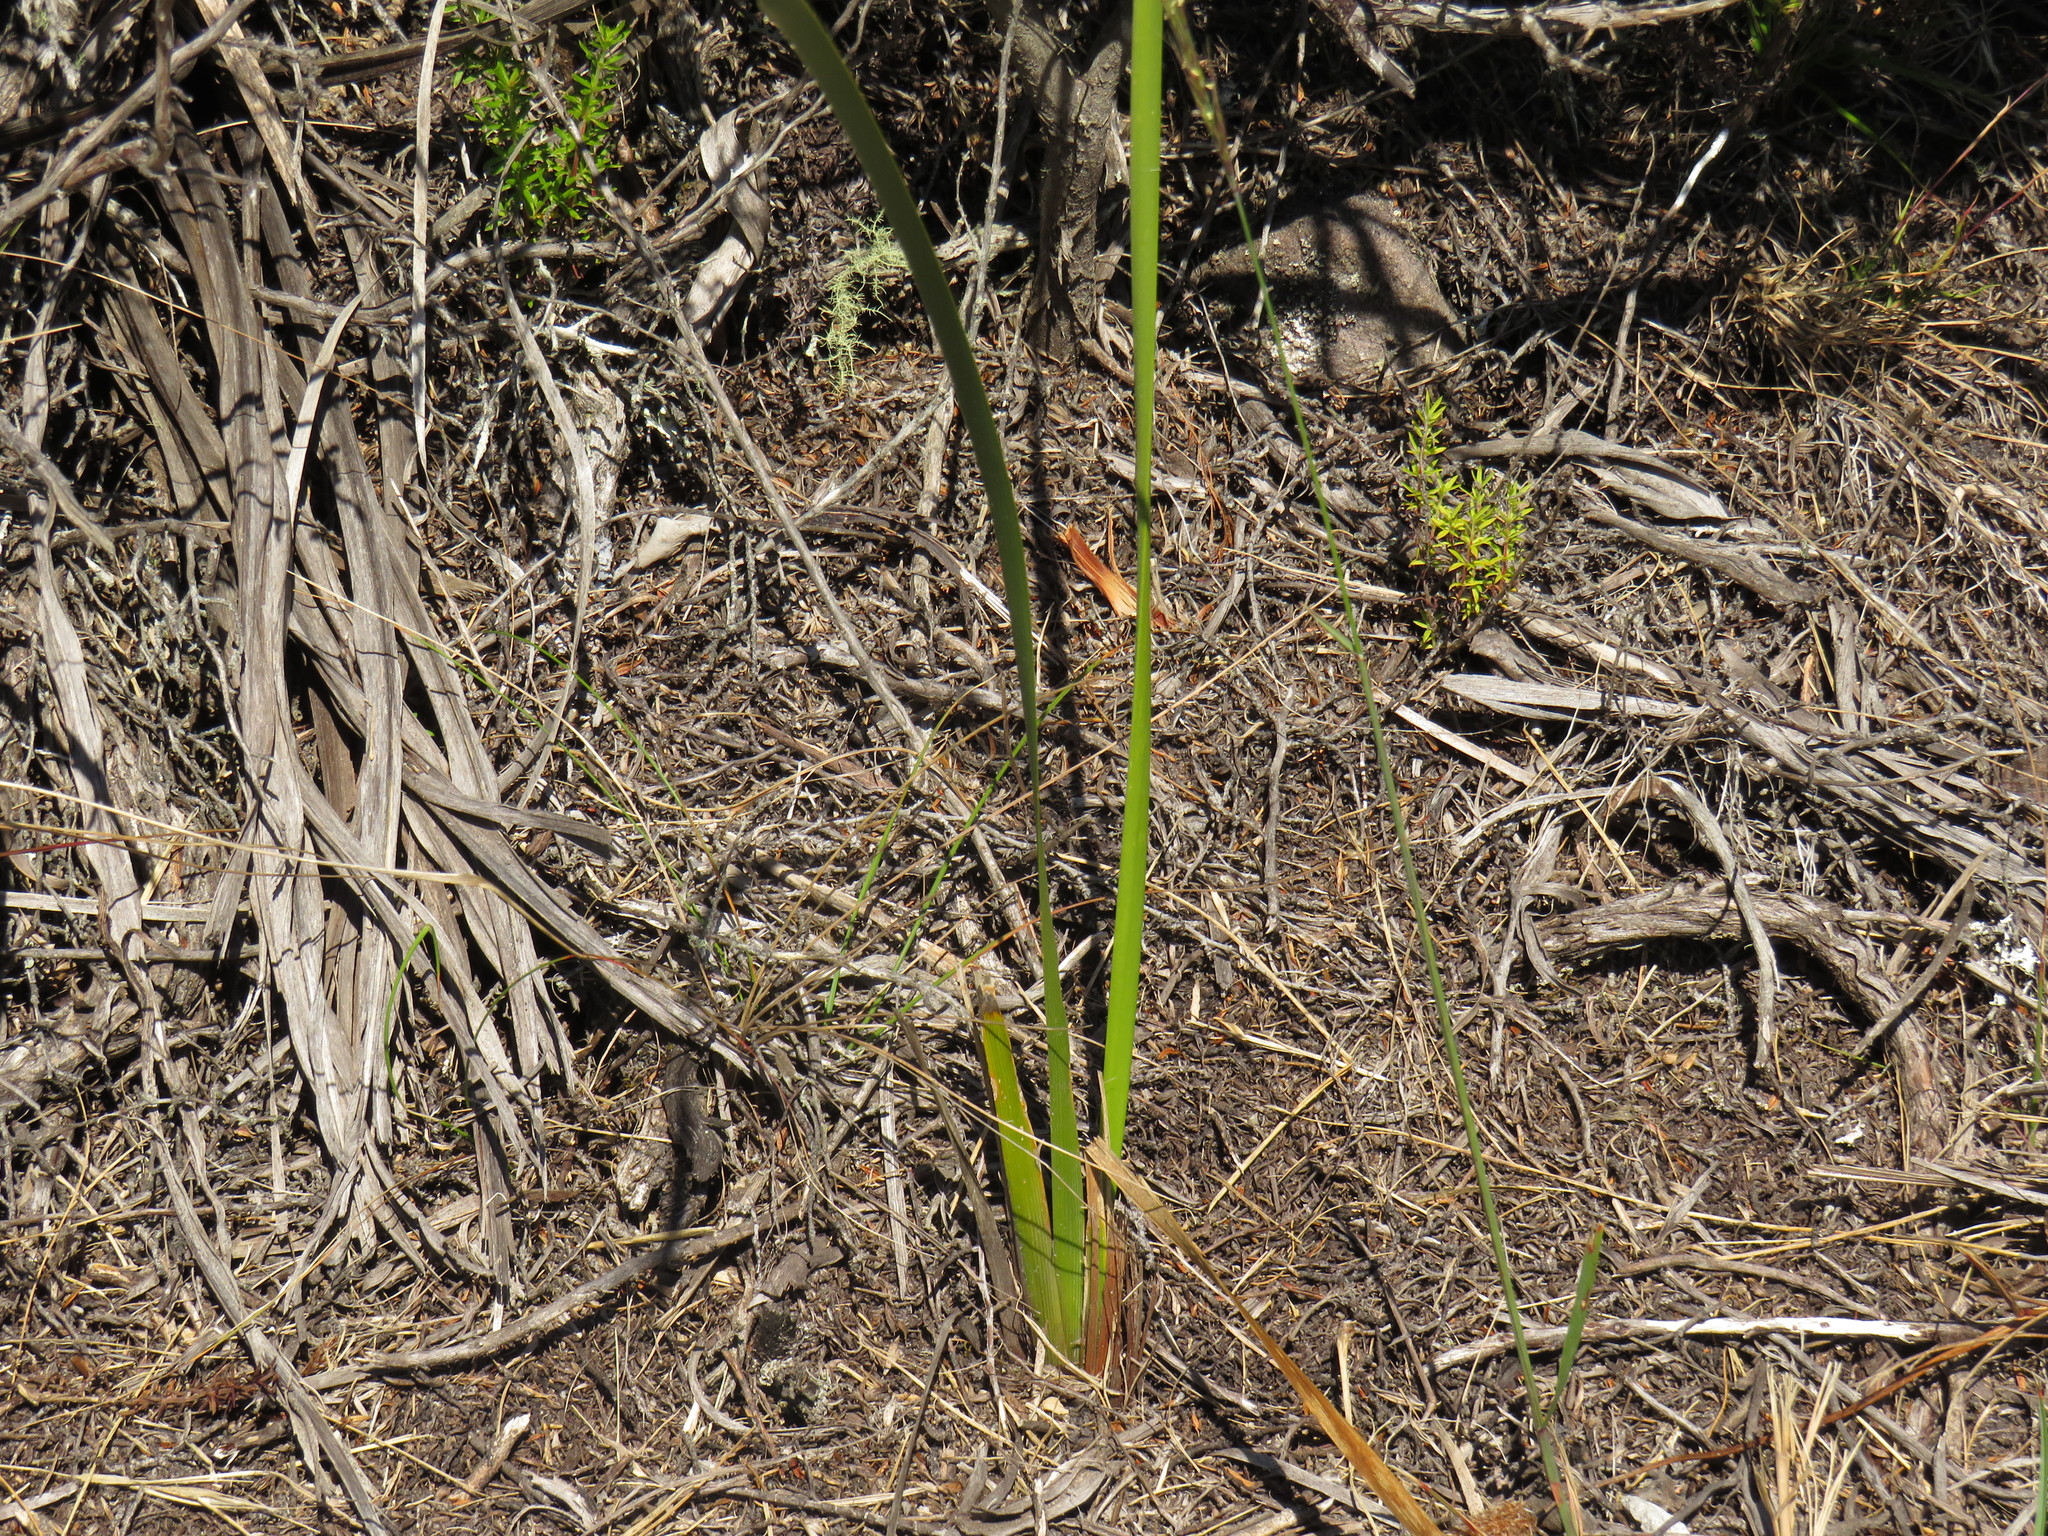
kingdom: Plantae
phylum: Tracheophyta
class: Liliopsida
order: Asparagales
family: Iridaceae
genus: Bobartia
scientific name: Bobartia gladiata
